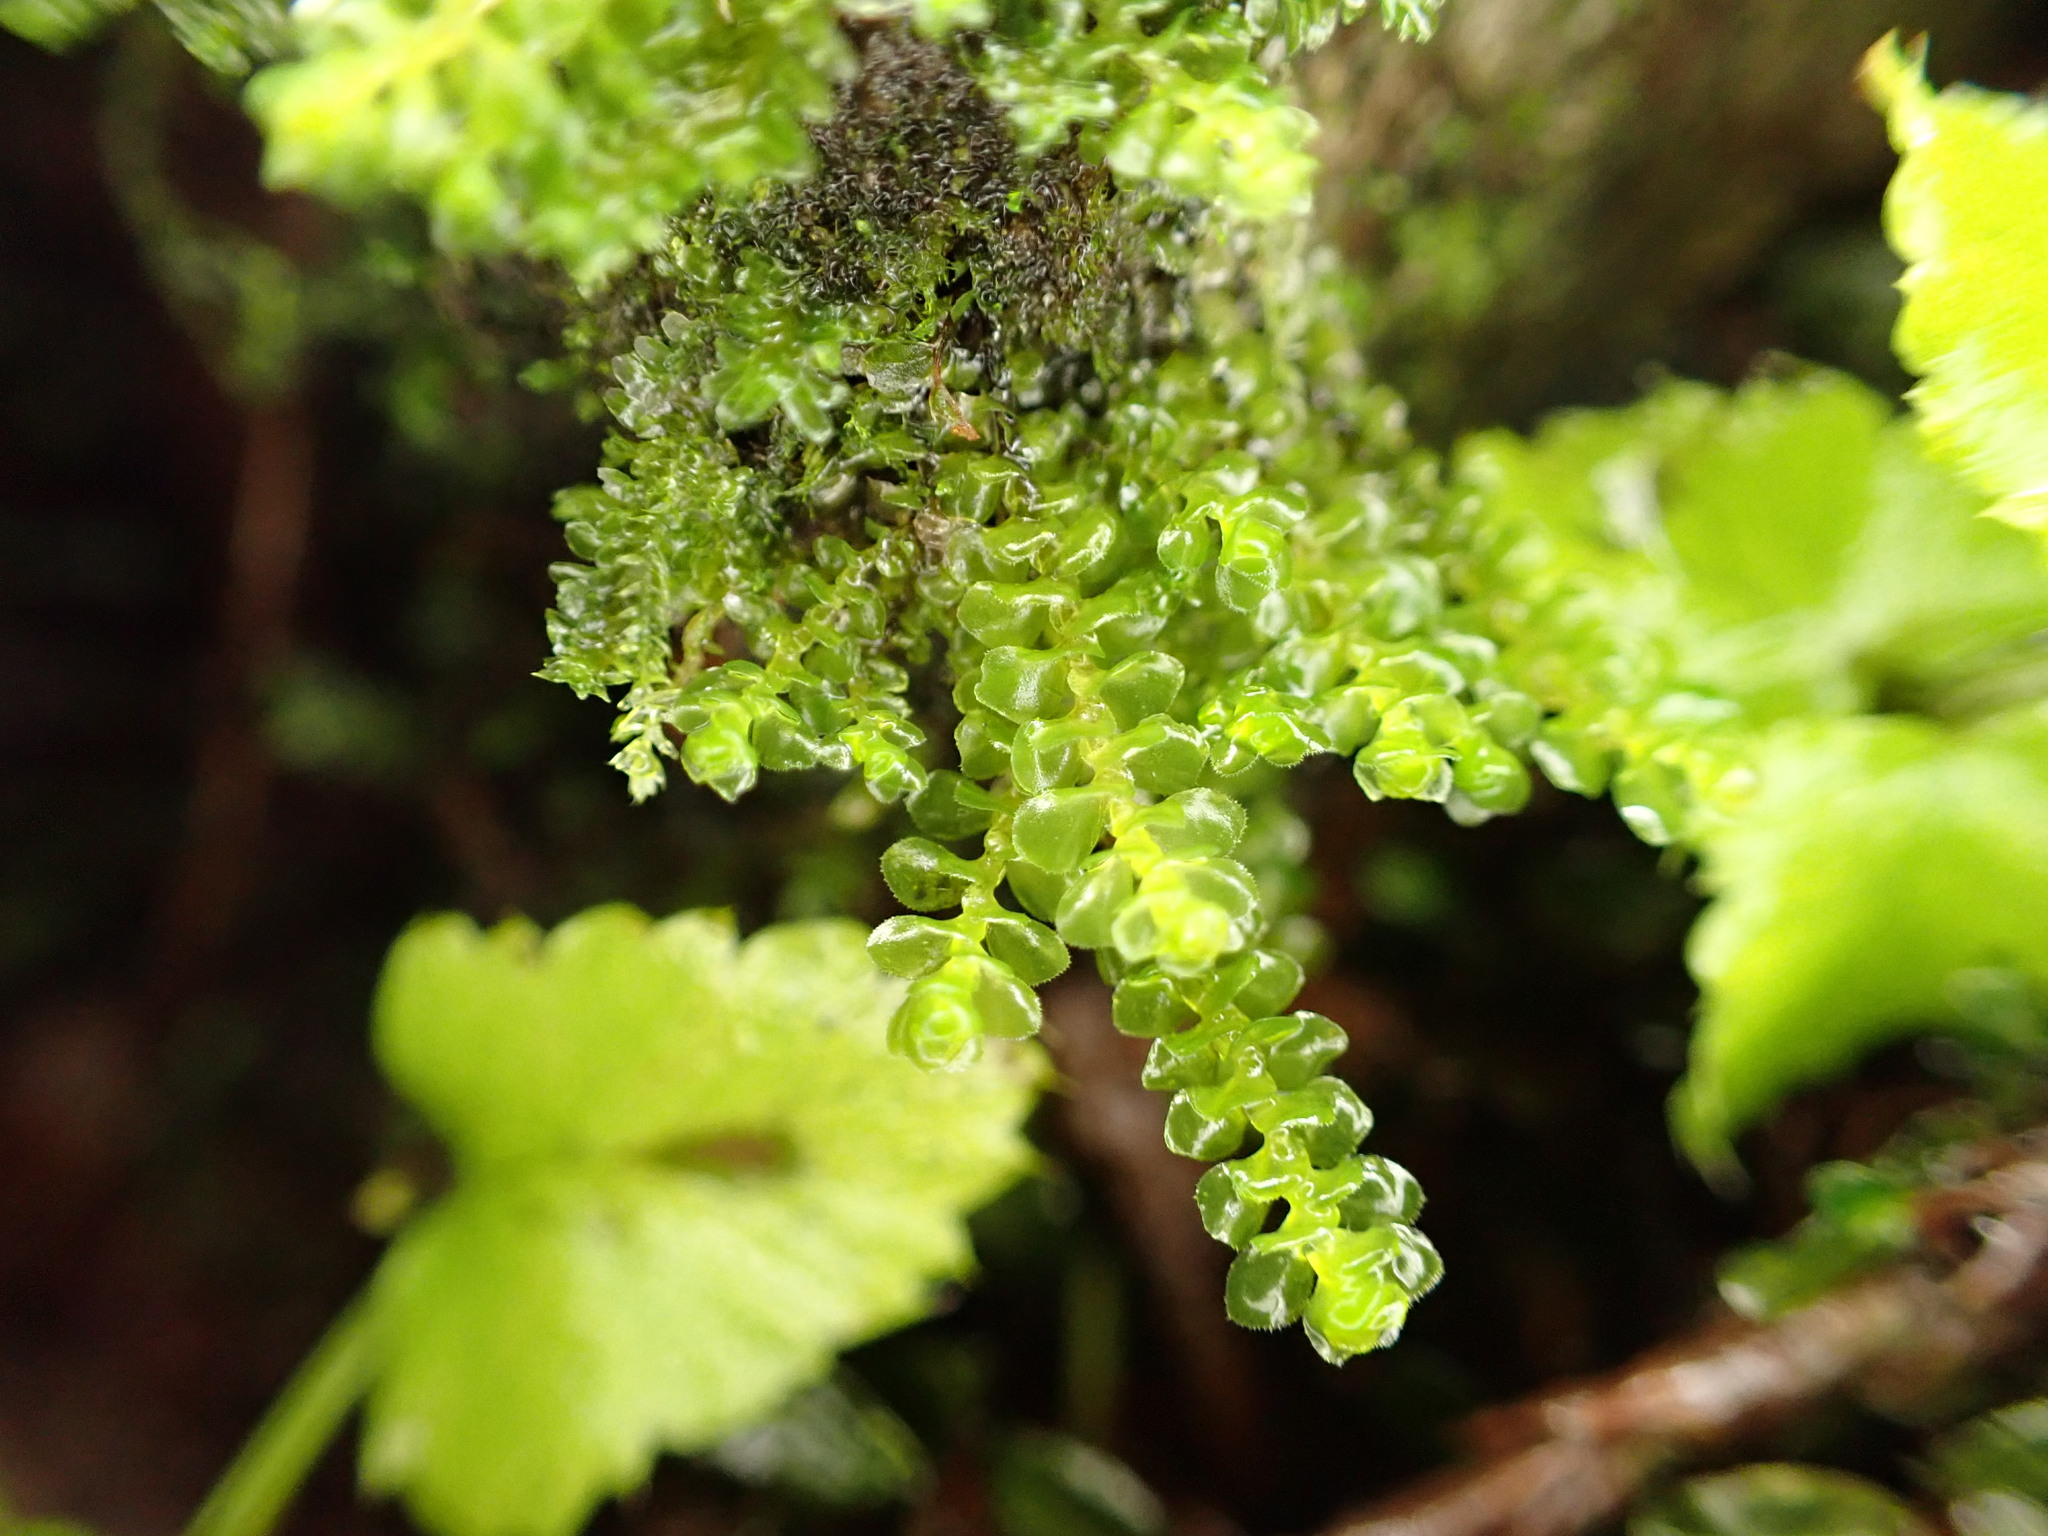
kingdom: Plantae
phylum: Marchantiophyta
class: Jungermanniopsida
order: Jungermanniales
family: Scapaniaceae
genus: Scapania
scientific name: Scapania americana
